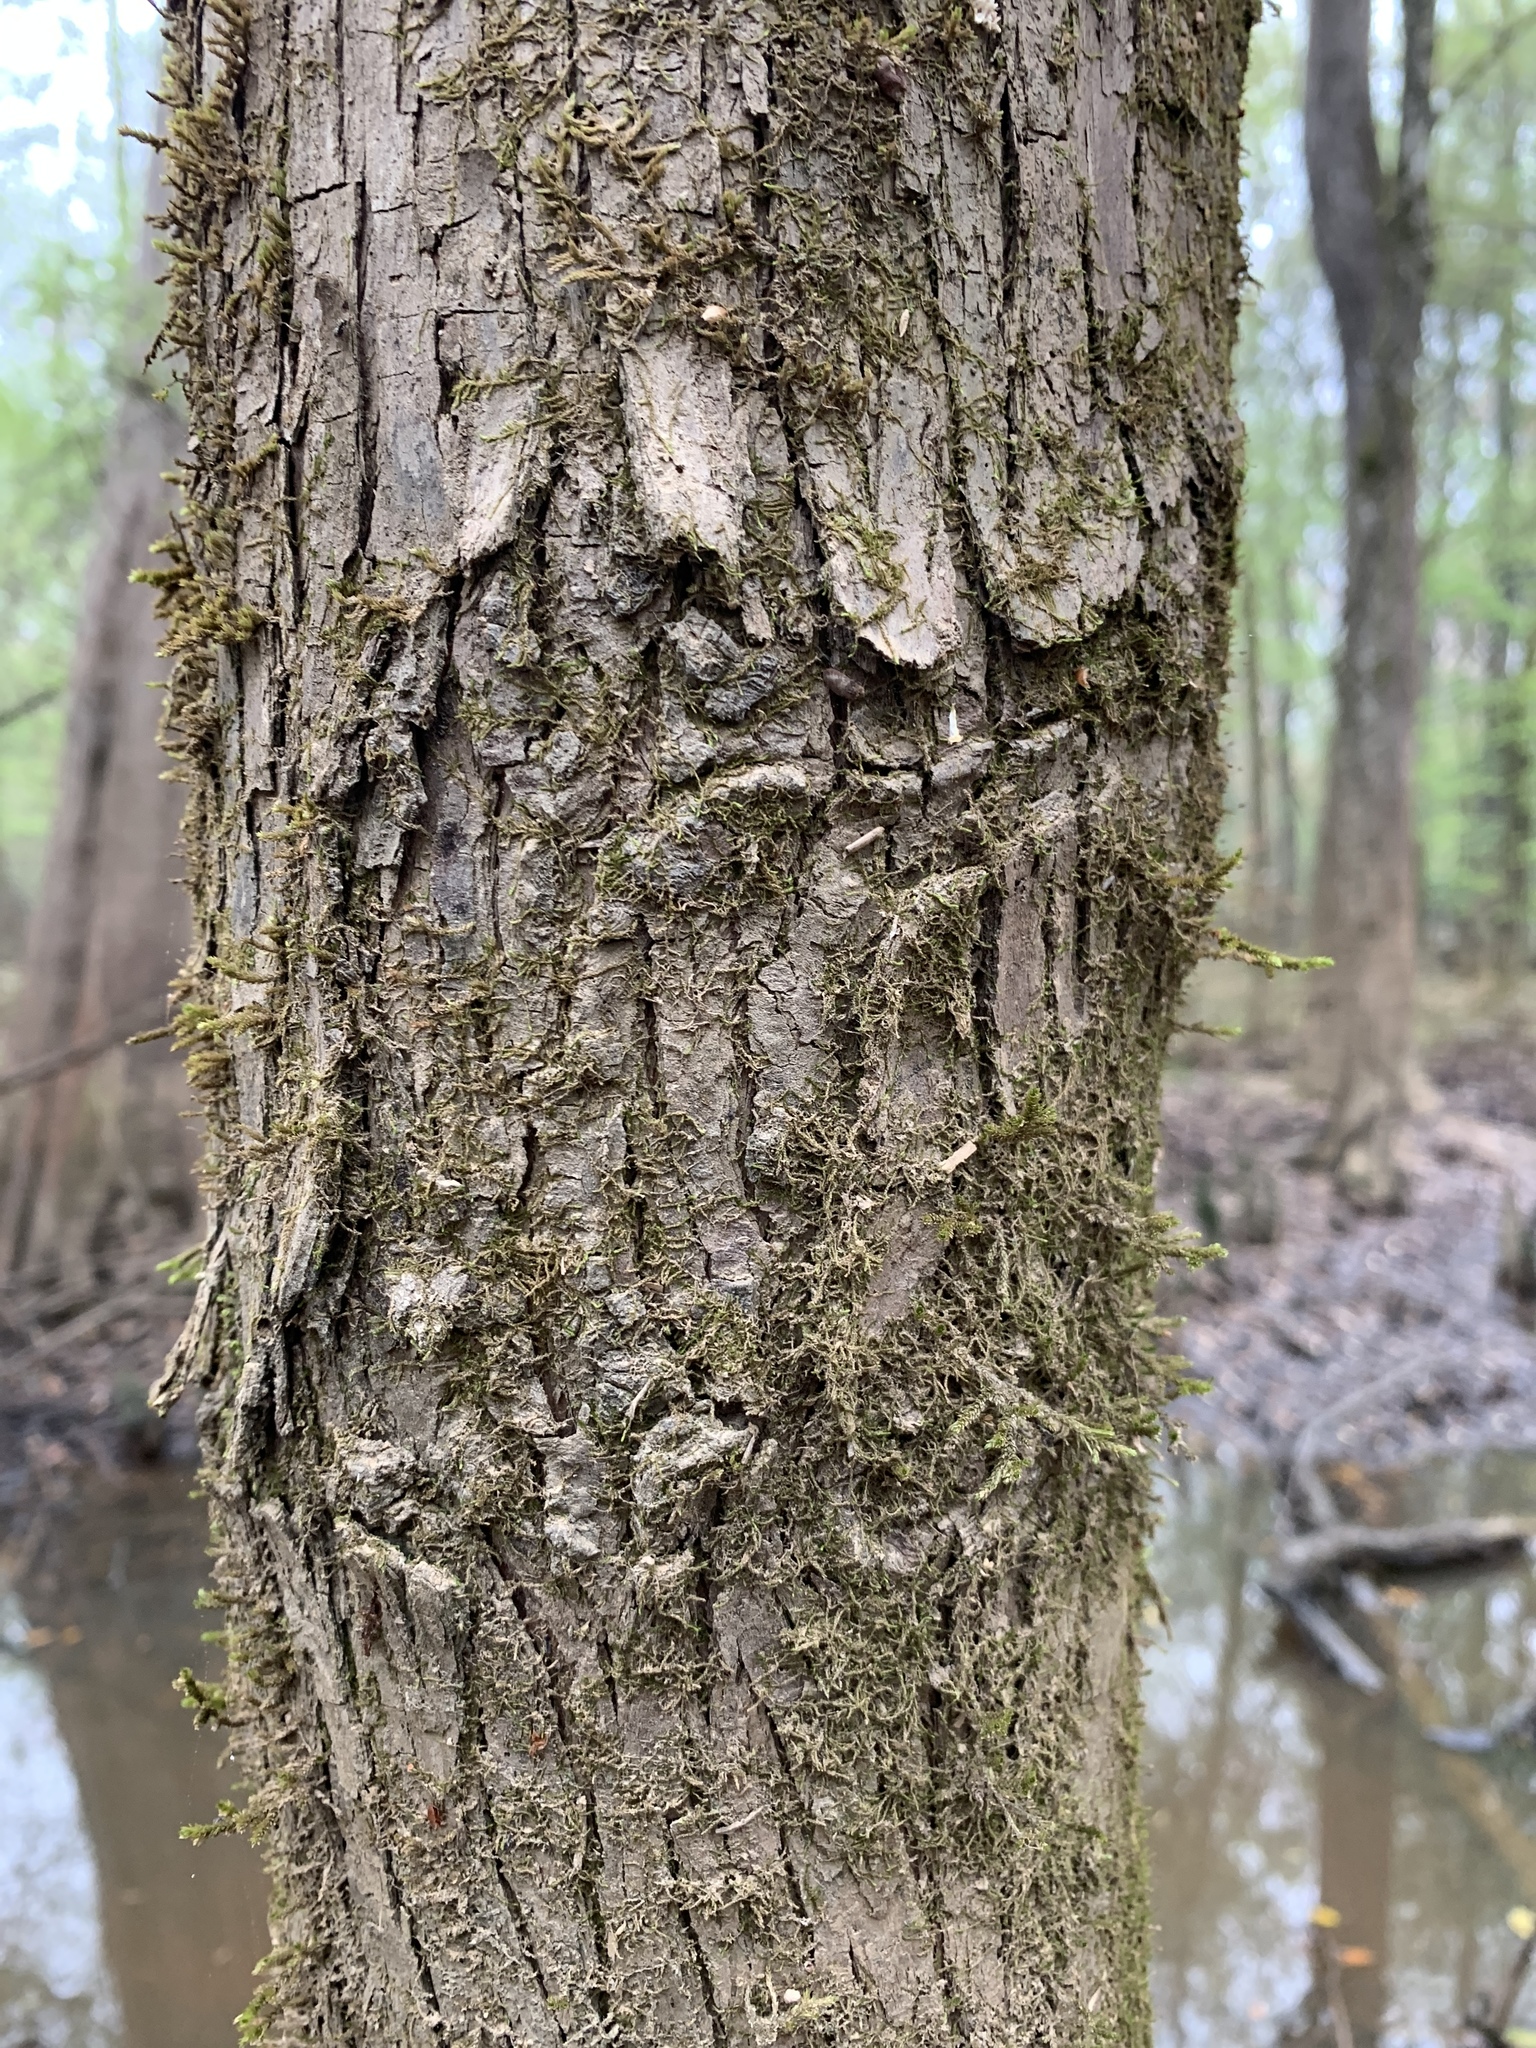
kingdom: Plantae
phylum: Tracheophyta
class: Pinopsida
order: Pinales
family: Cupressaceae
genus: Taxodium
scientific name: Taxodium distichum
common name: Bald cypress
